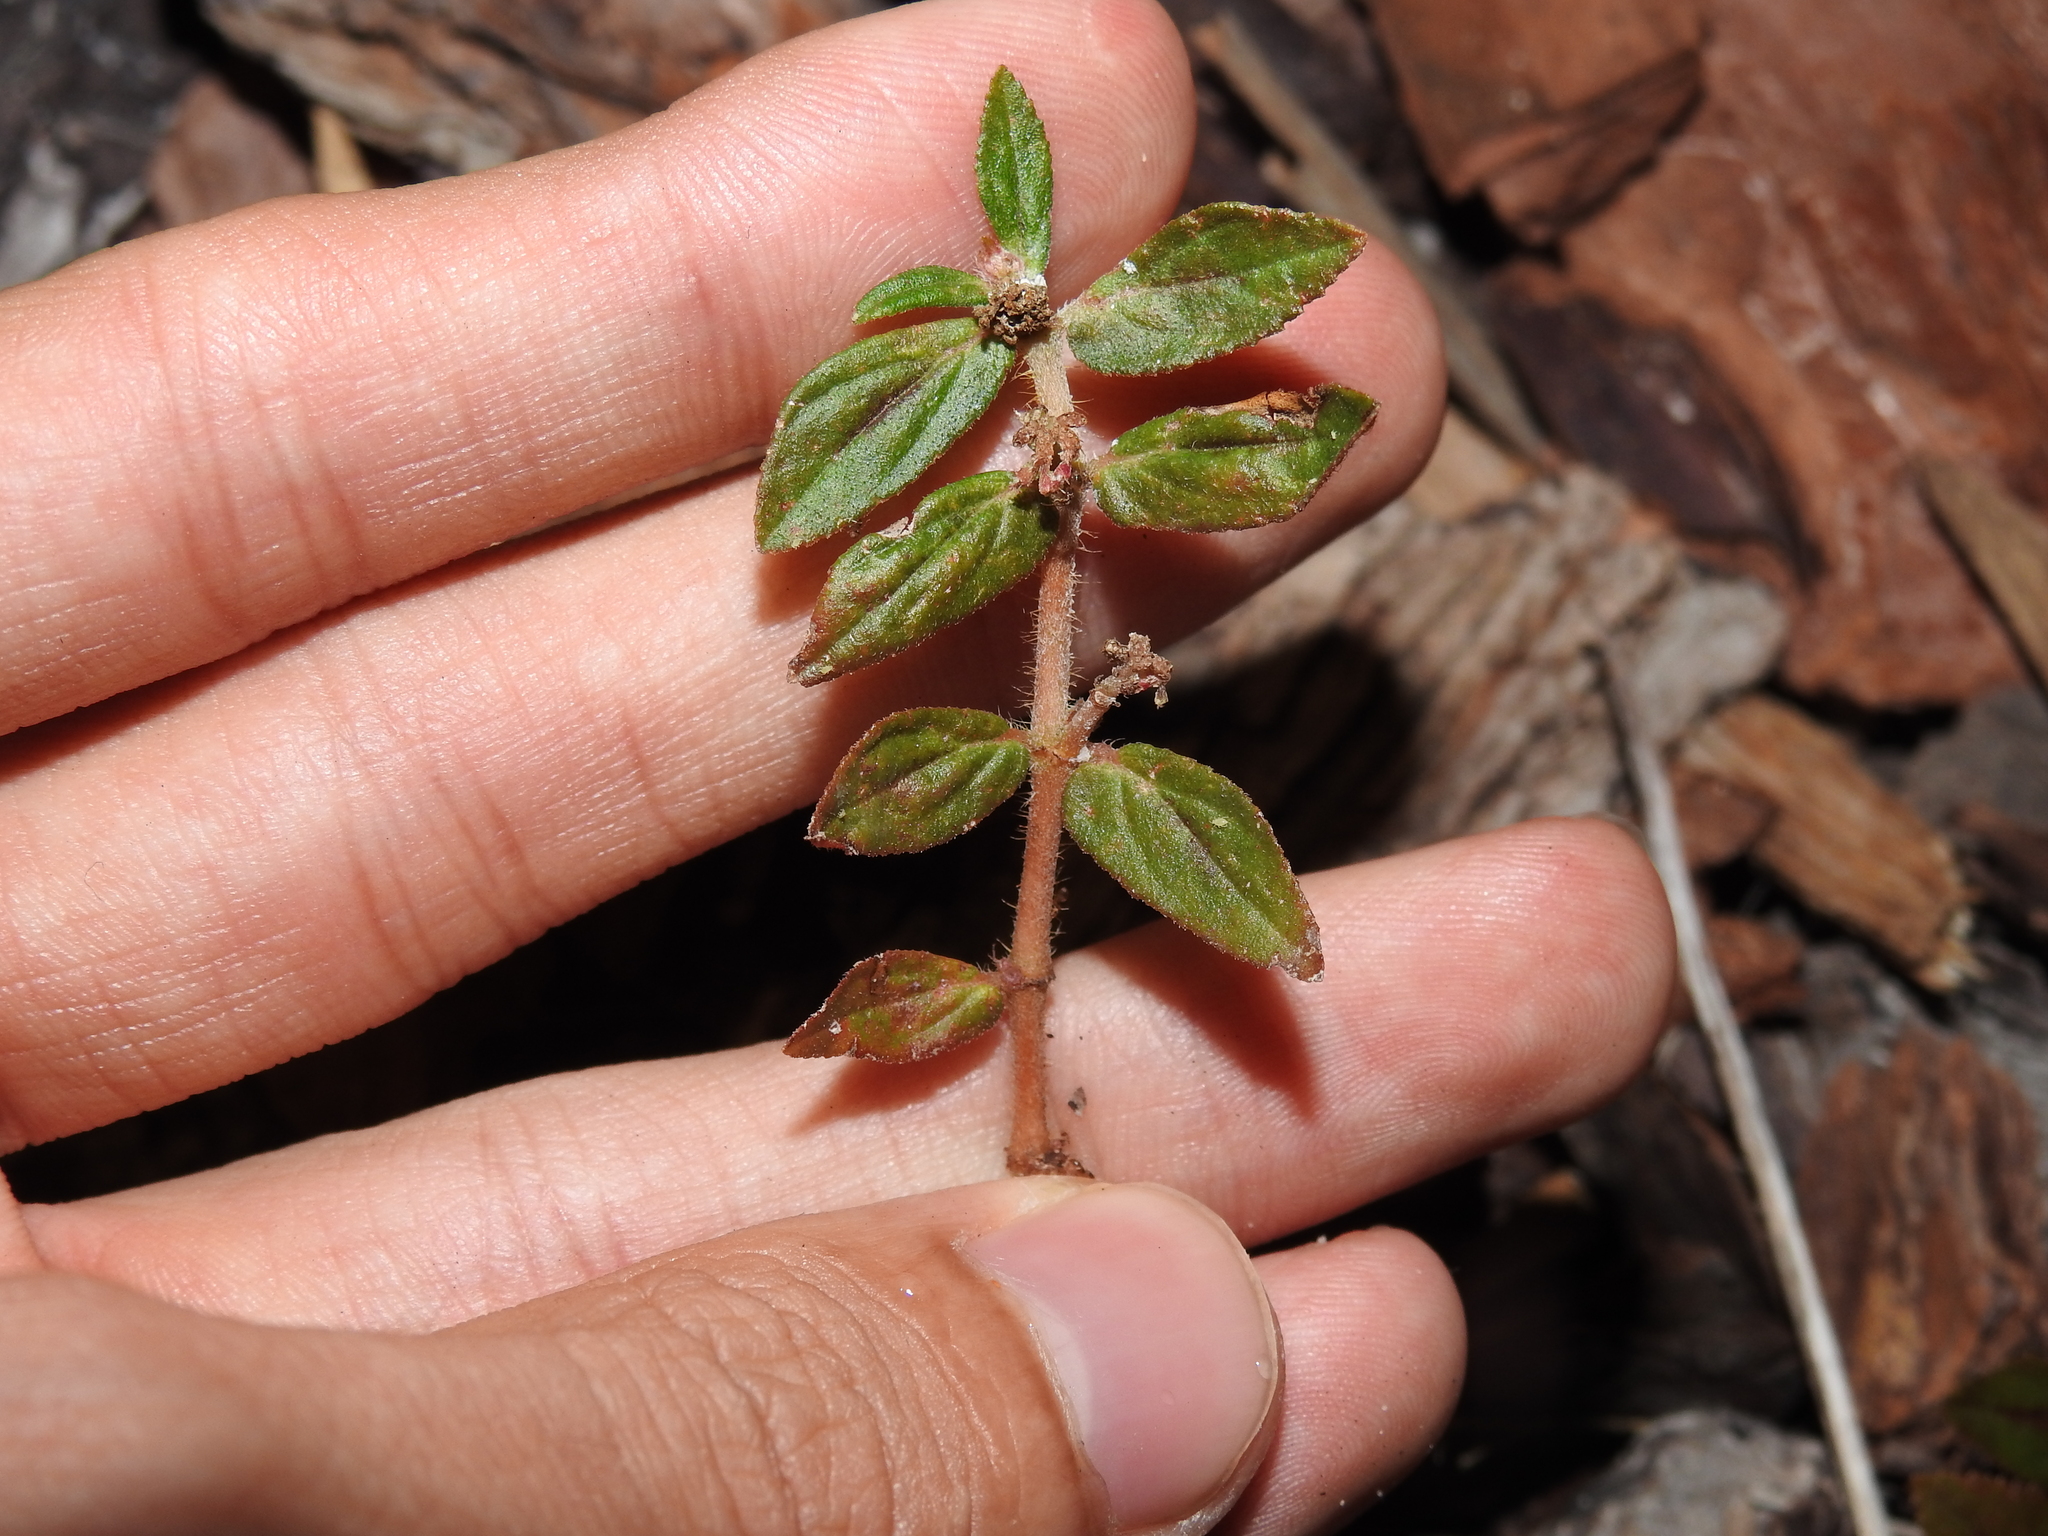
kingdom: Plantae
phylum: Tracheophyta
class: Magnoliopsida
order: Malpighiales
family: Euphorbiaceae
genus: Euphorbia
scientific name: Euphorbia hirta
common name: Pillpod sandmat
